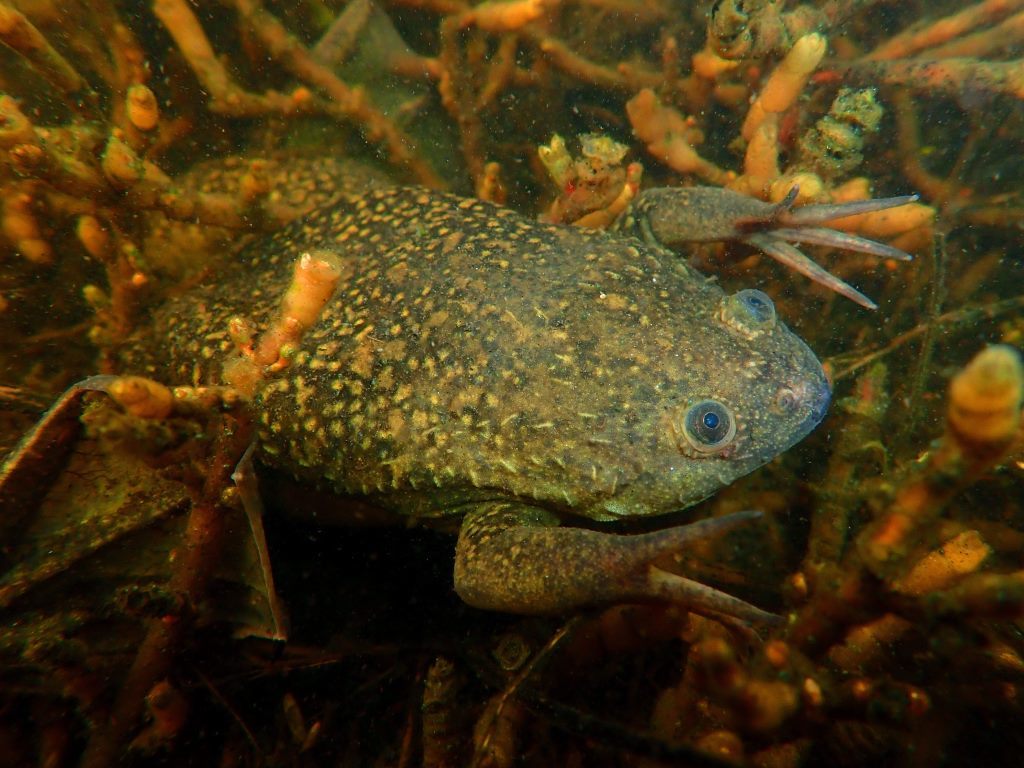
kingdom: Animalia
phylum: Chordata
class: Amphibia
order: Anura
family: Pipidae
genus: Xenopus
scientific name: Xenopus laevis
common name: African clawed frog
